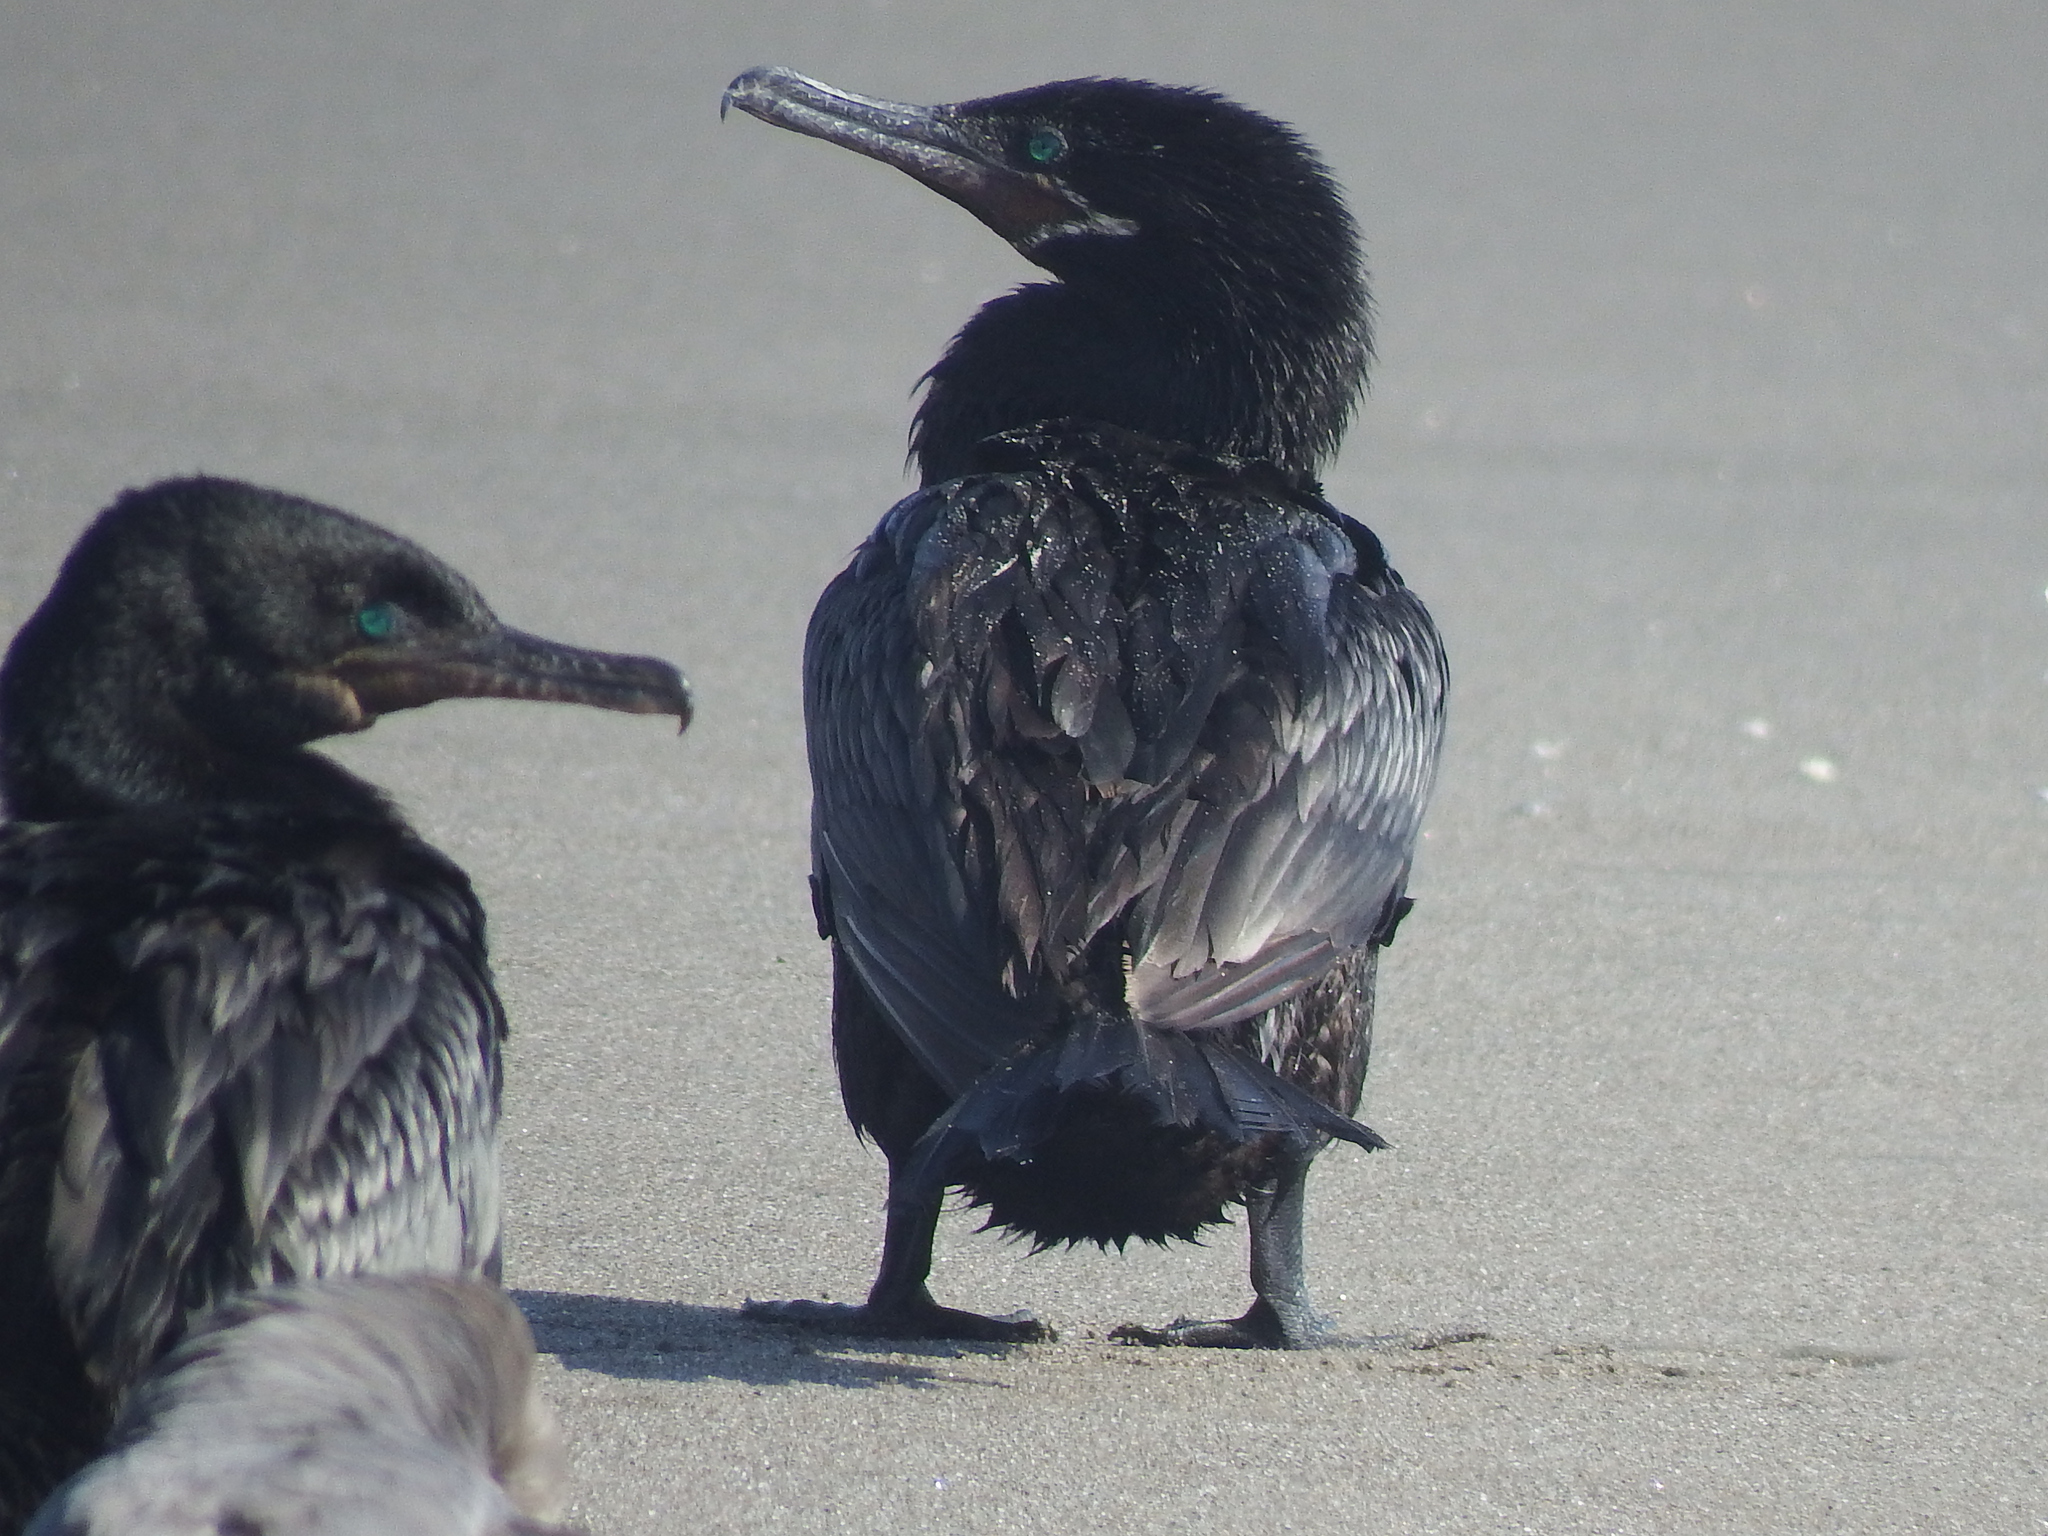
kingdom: Animalia
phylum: Chordata
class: Aves
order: Suliformes
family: Phalacrocoracidae
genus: Phalacrocorax
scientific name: Phalacrocorax brasilianus
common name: Neotropic cormorant
